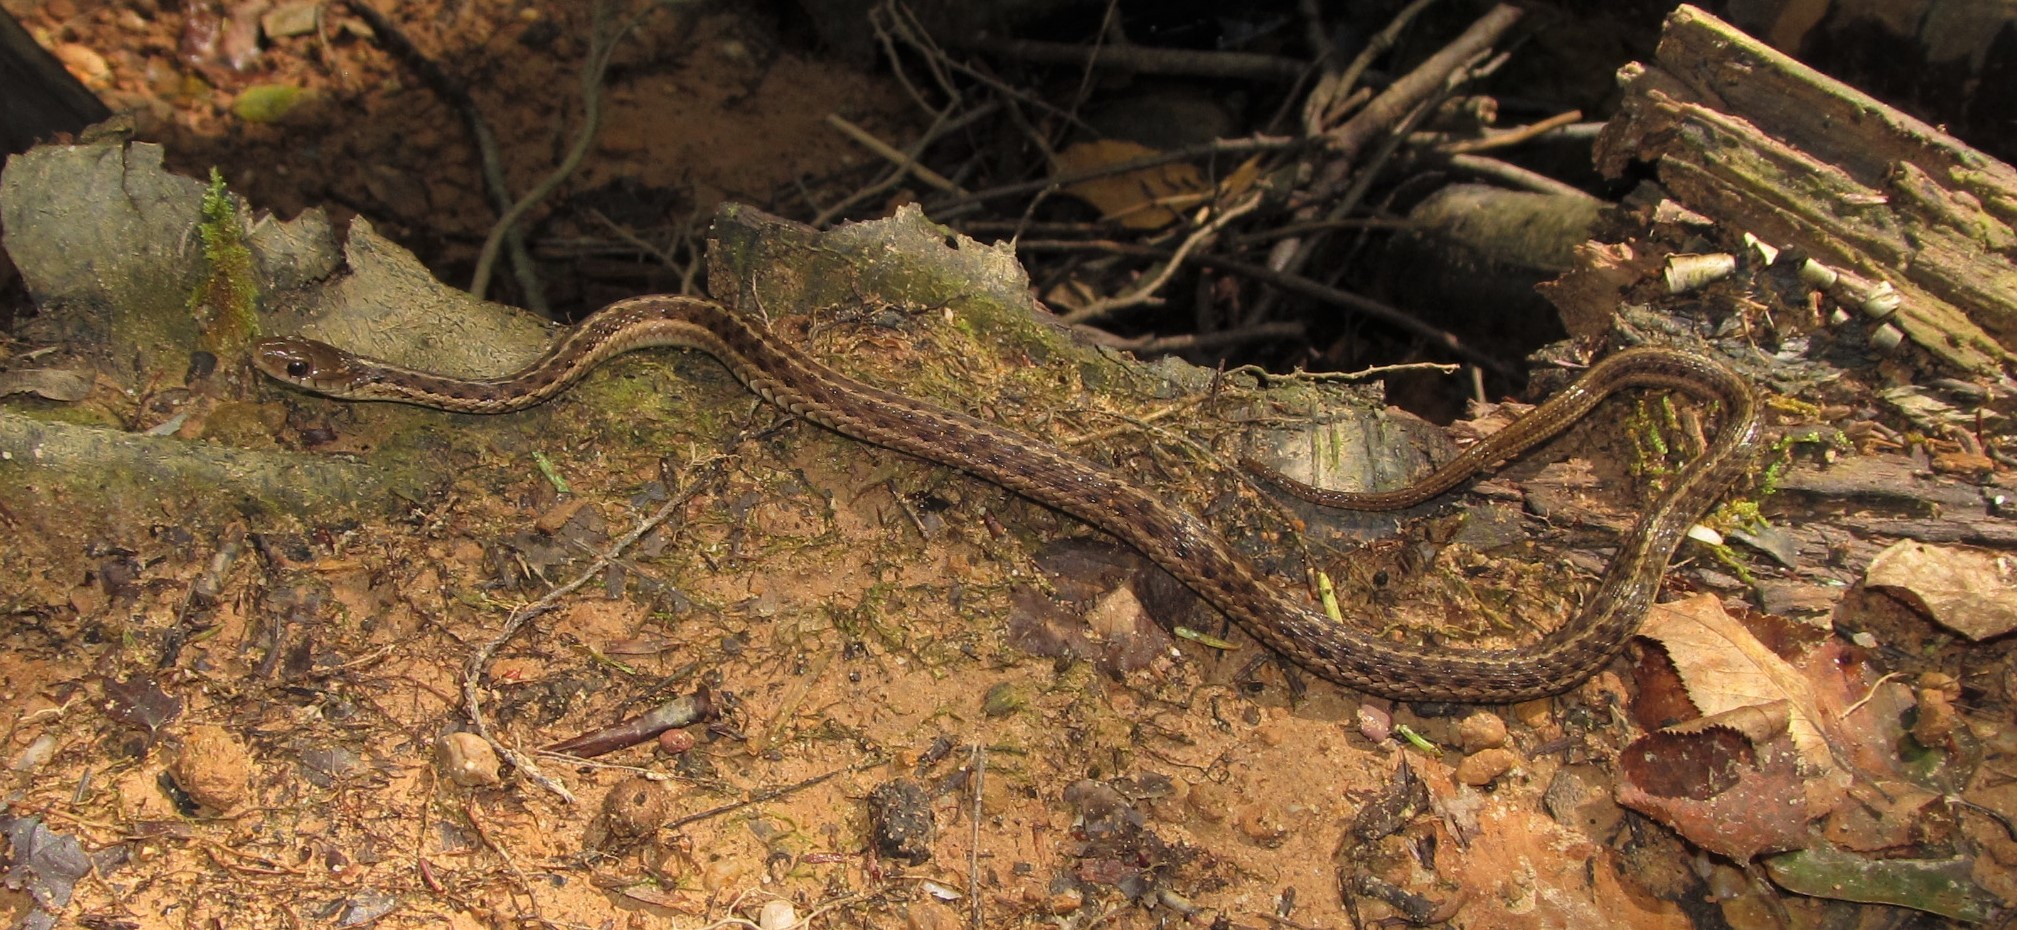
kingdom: Animalia
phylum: Chordata
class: Squamata
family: Colubridae
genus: Thamnophis
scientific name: Thamnophis sirtalis
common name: Common garter snake
